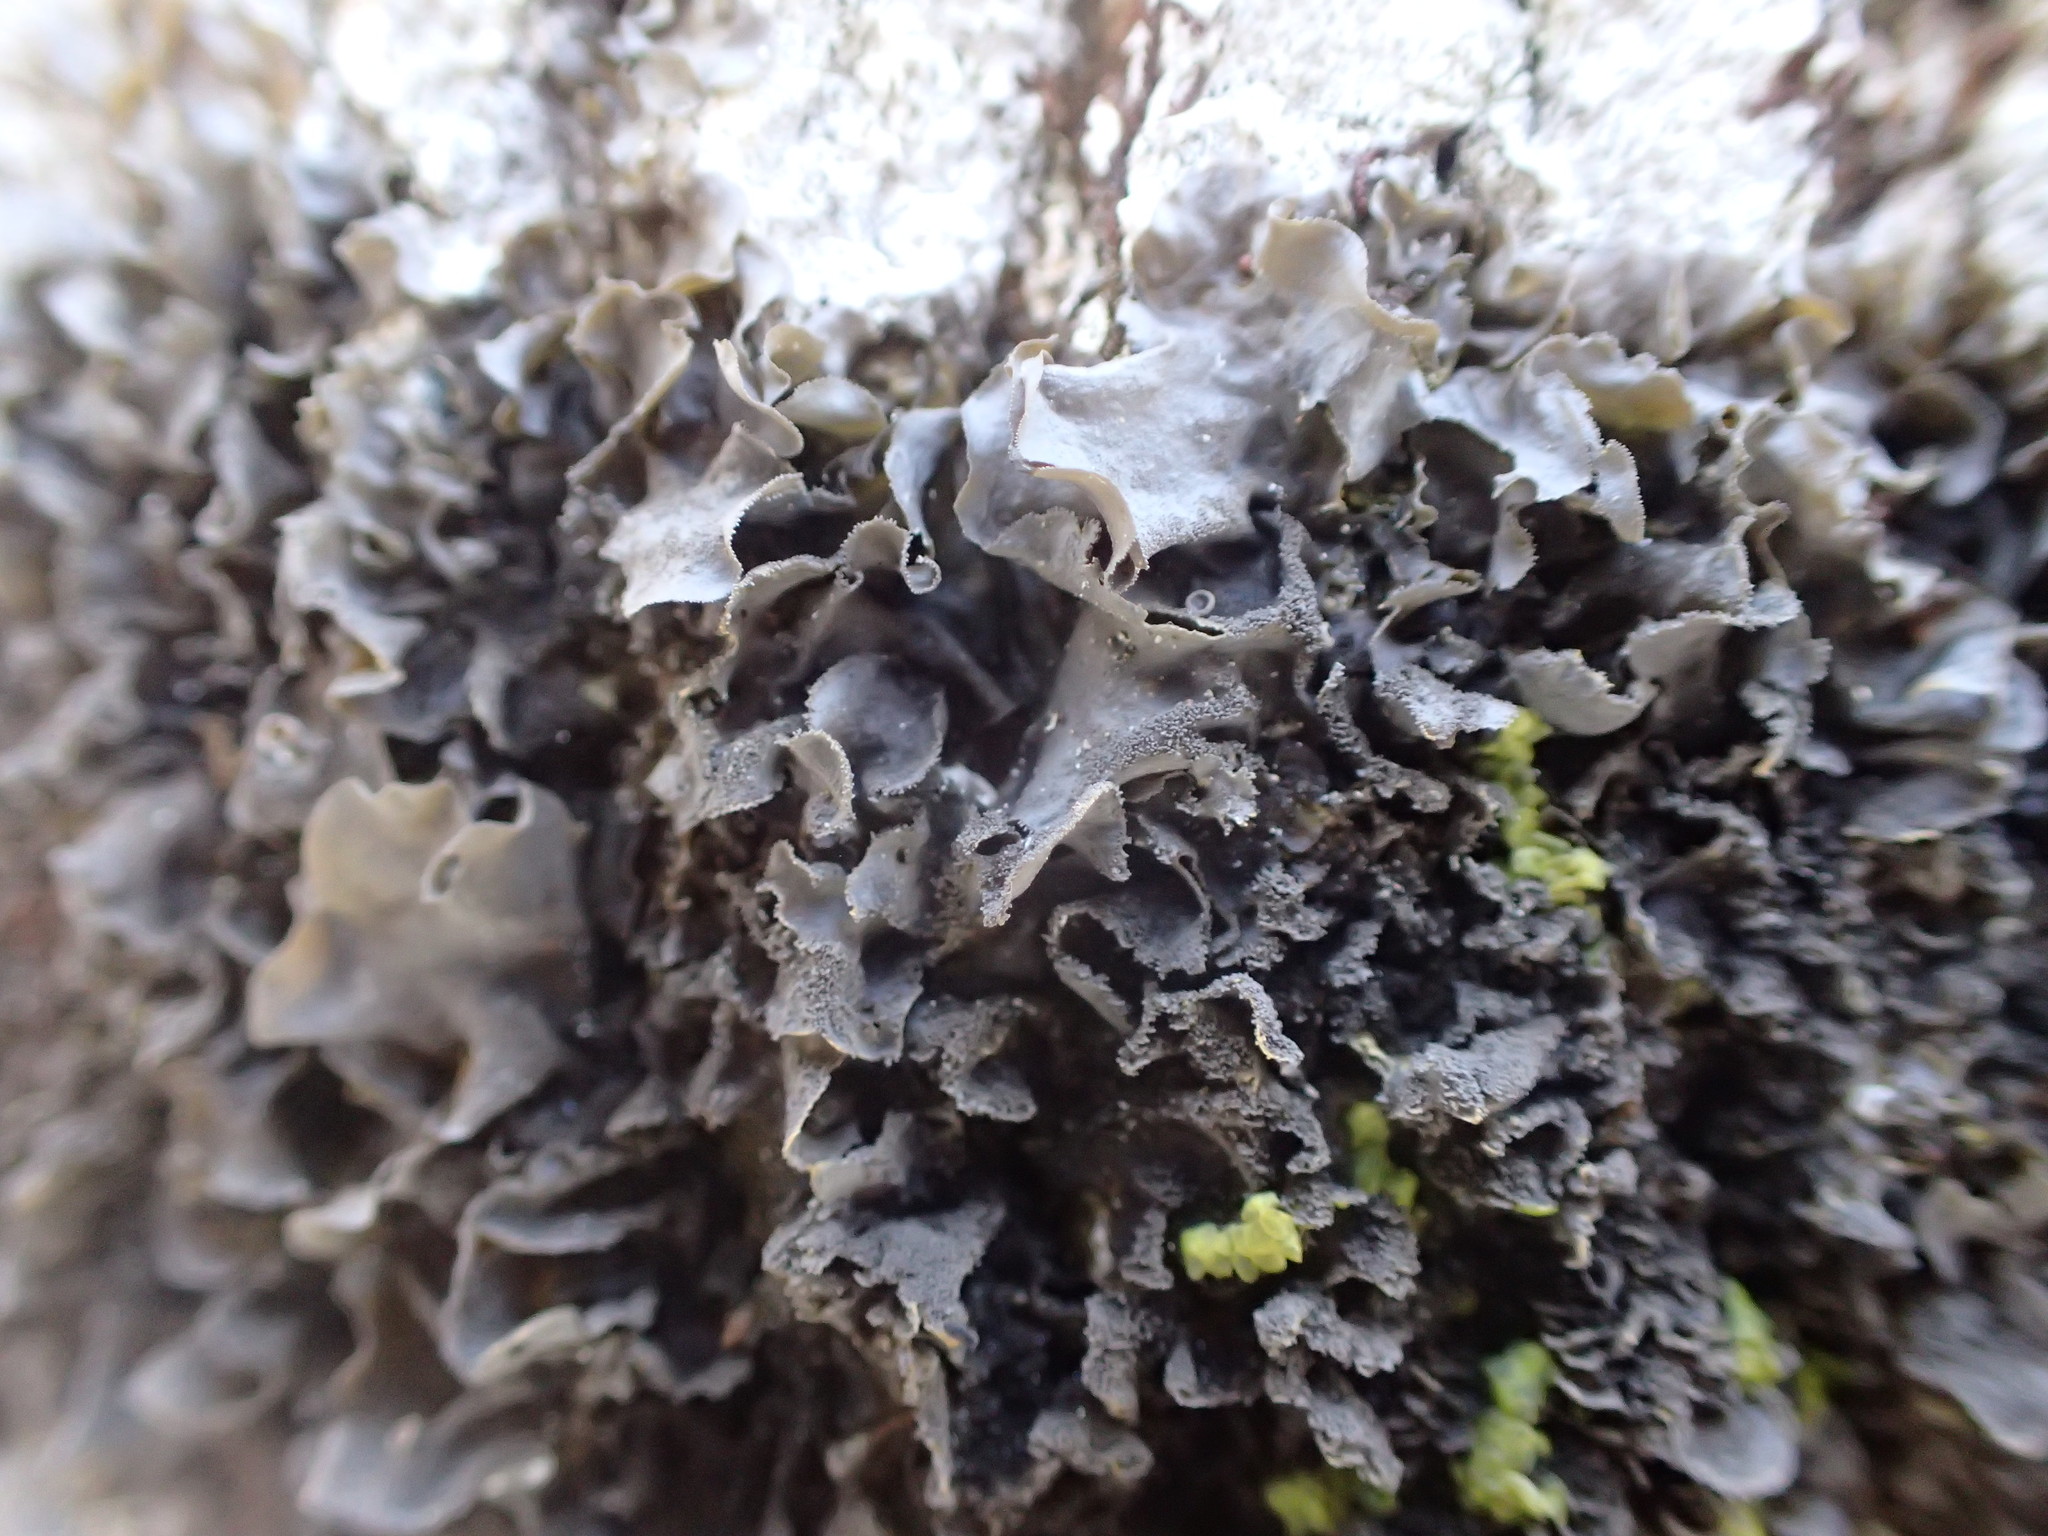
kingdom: Fungi
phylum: Ascomycota
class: Lecanoromycetes
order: Peltigerales
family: Collemataceae
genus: Leptogium
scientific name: Leptogium cyanescens
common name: Blue jellyskin
